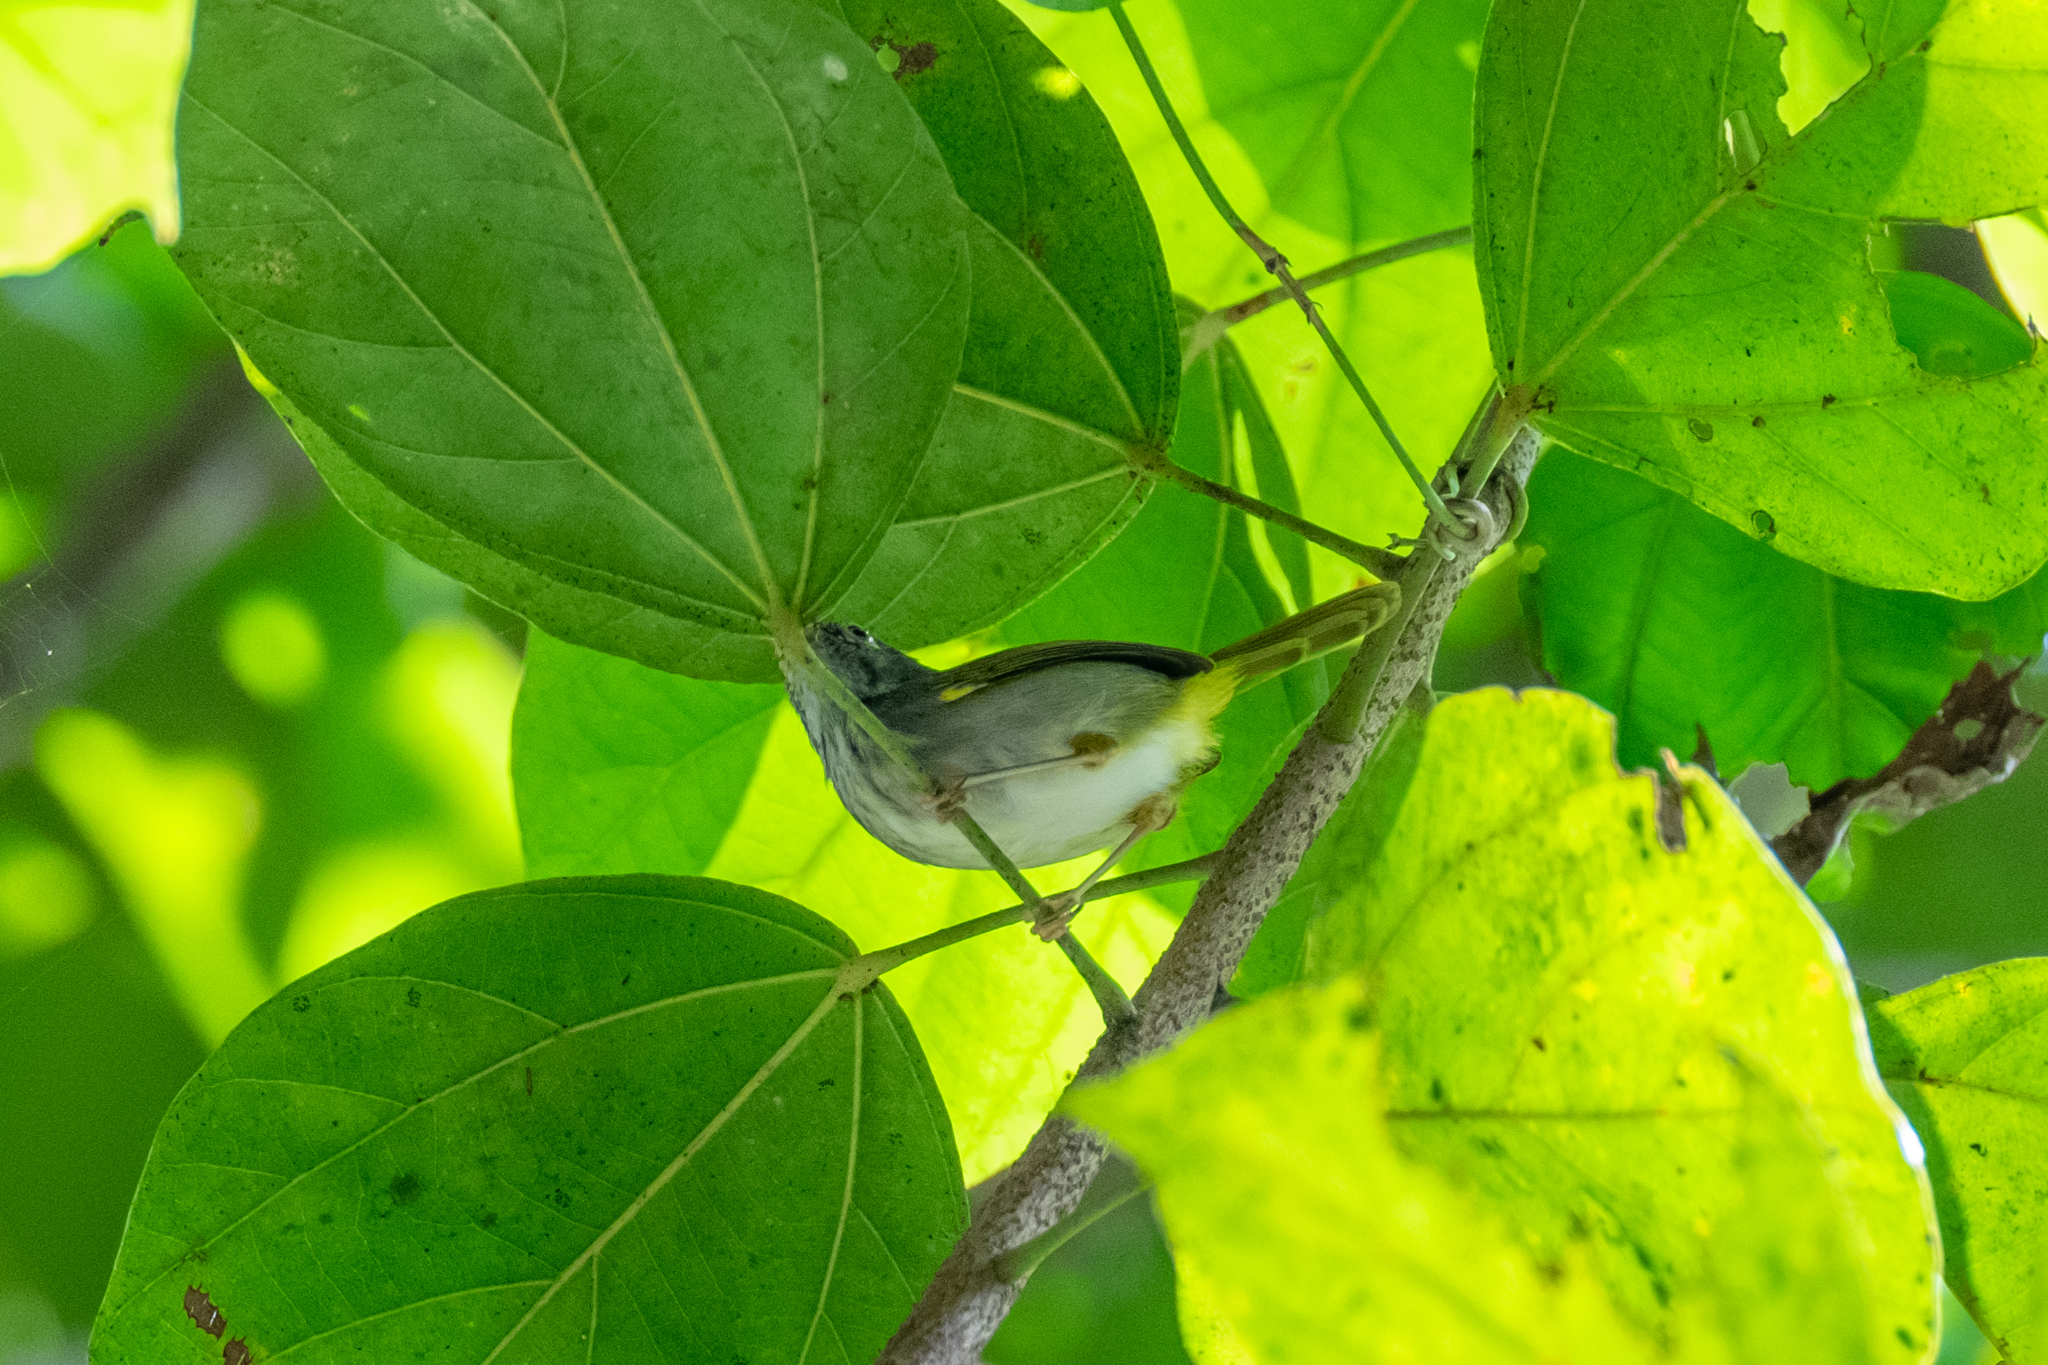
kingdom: Animalia
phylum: Chordata
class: Aves
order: Passeriformes
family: Cisticolidae
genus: Orthotomus
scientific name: Orthotomus atrogularis
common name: Dark-necked tailorbird
